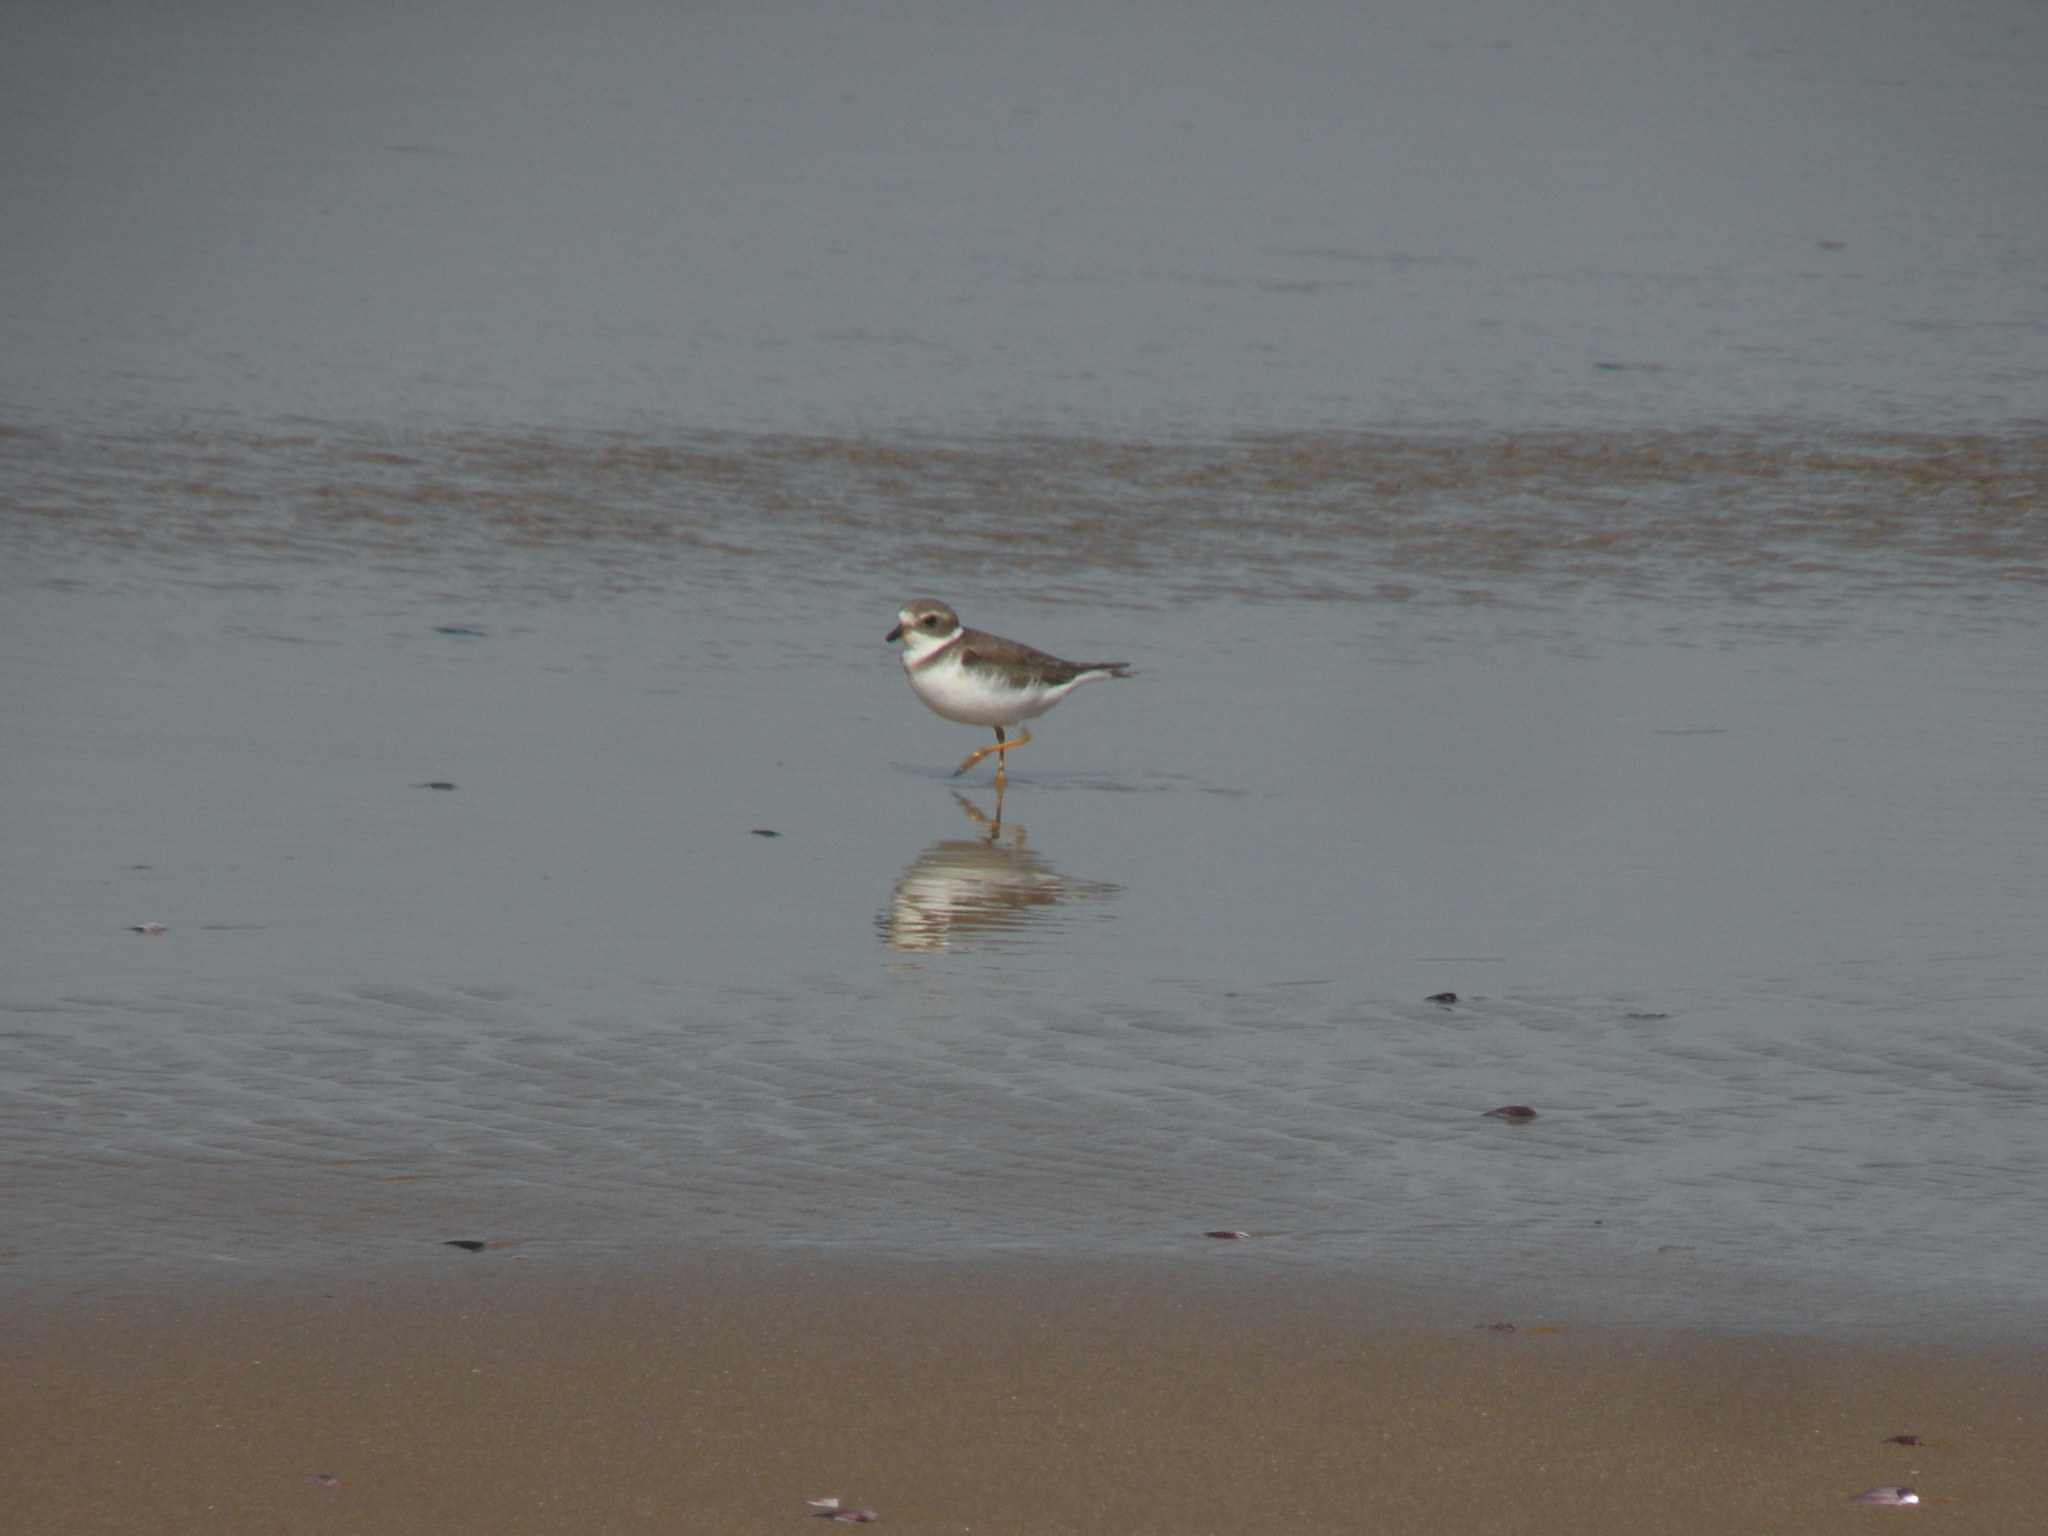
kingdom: Animalia
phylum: Chordata
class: Aves
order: Charadriiformes
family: Charadriidae
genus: Charadrius
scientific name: Charadrius semipalmatus
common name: Semipalmated plover
